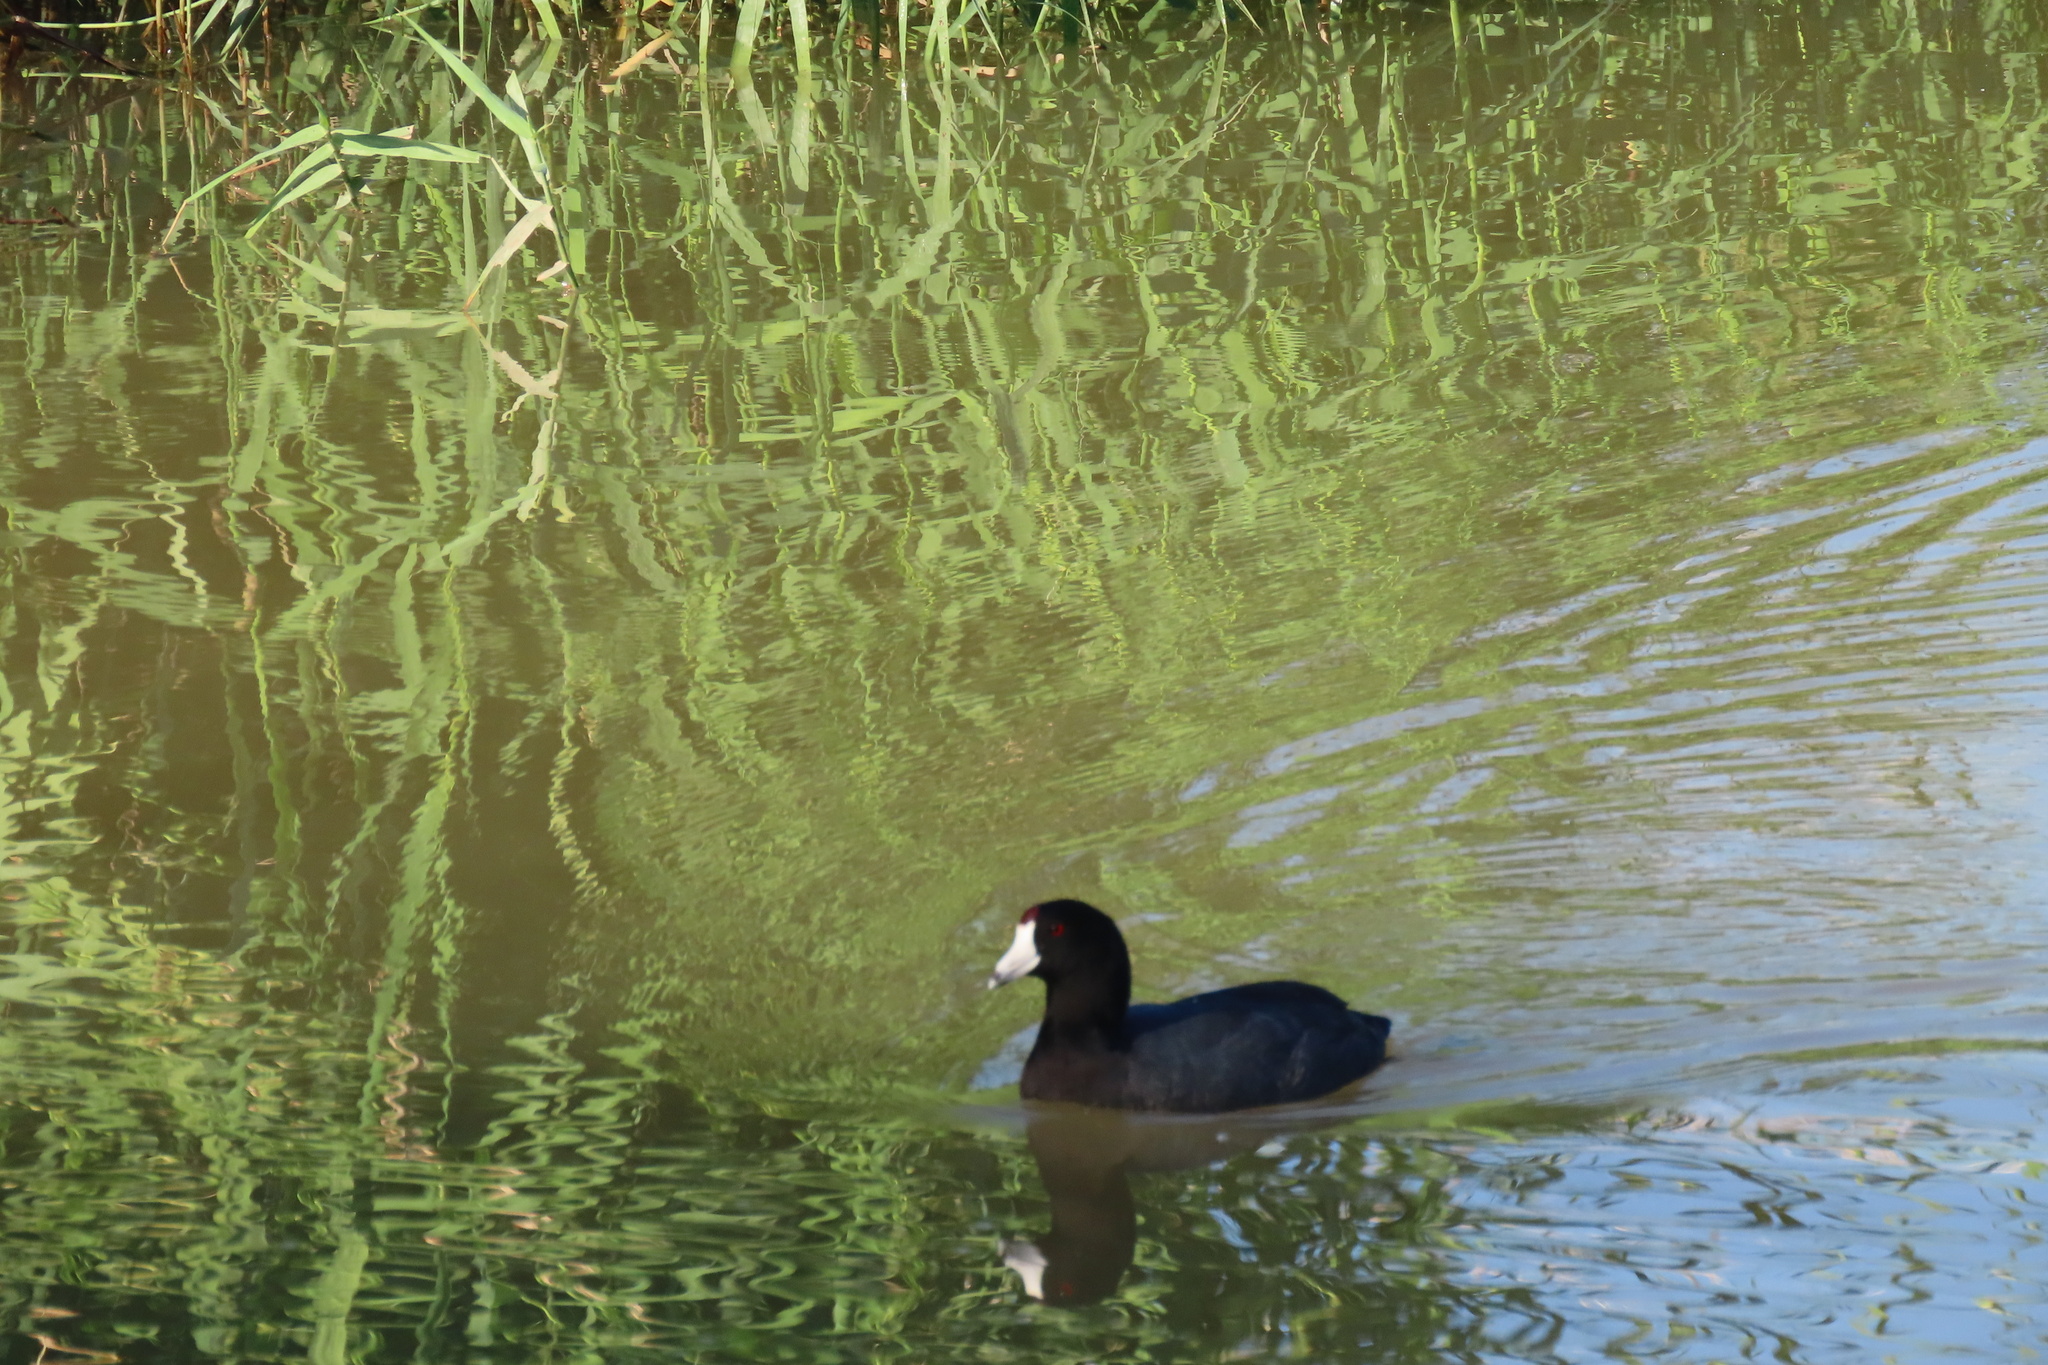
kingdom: Animalia
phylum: Chordata
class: Aves
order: Gruiformes
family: Rallidae
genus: Fulica
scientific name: Fulica americana
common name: American coot
